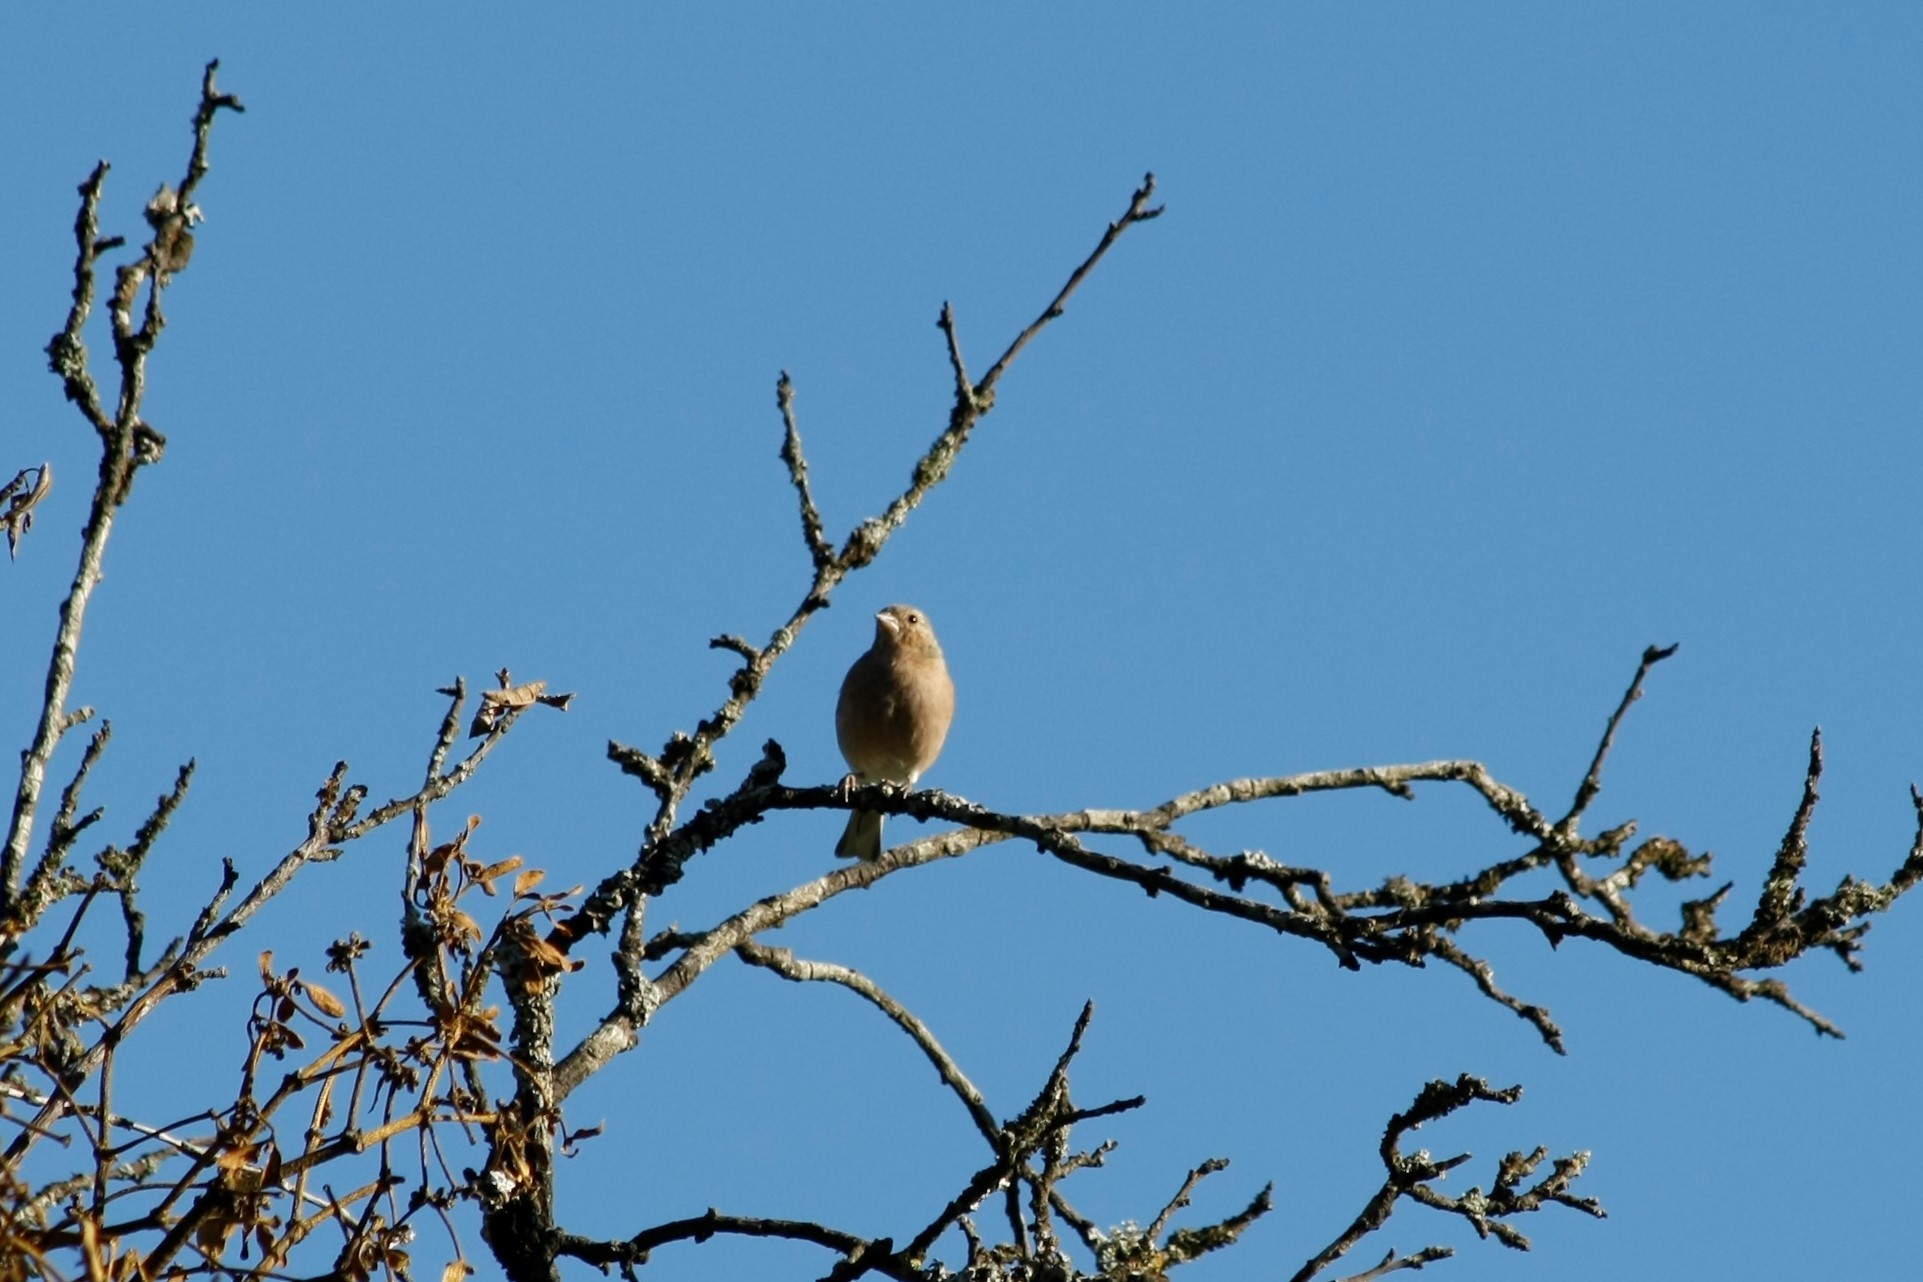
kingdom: Animalia
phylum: Chordata
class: Aves
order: Passeriformes
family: Fringillidae
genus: Fringilla
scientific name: Fringilla coelebs
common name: Common chaffinch
